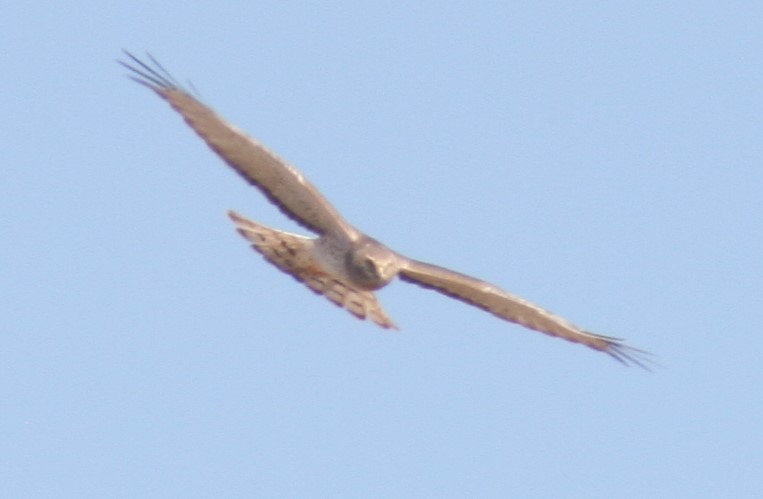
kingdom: Animalia
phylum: Chordata
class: Aves
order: Accipitriformes
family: Accipitridae
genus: Circus
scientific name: Circus cyaneus
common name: Hen harrier
